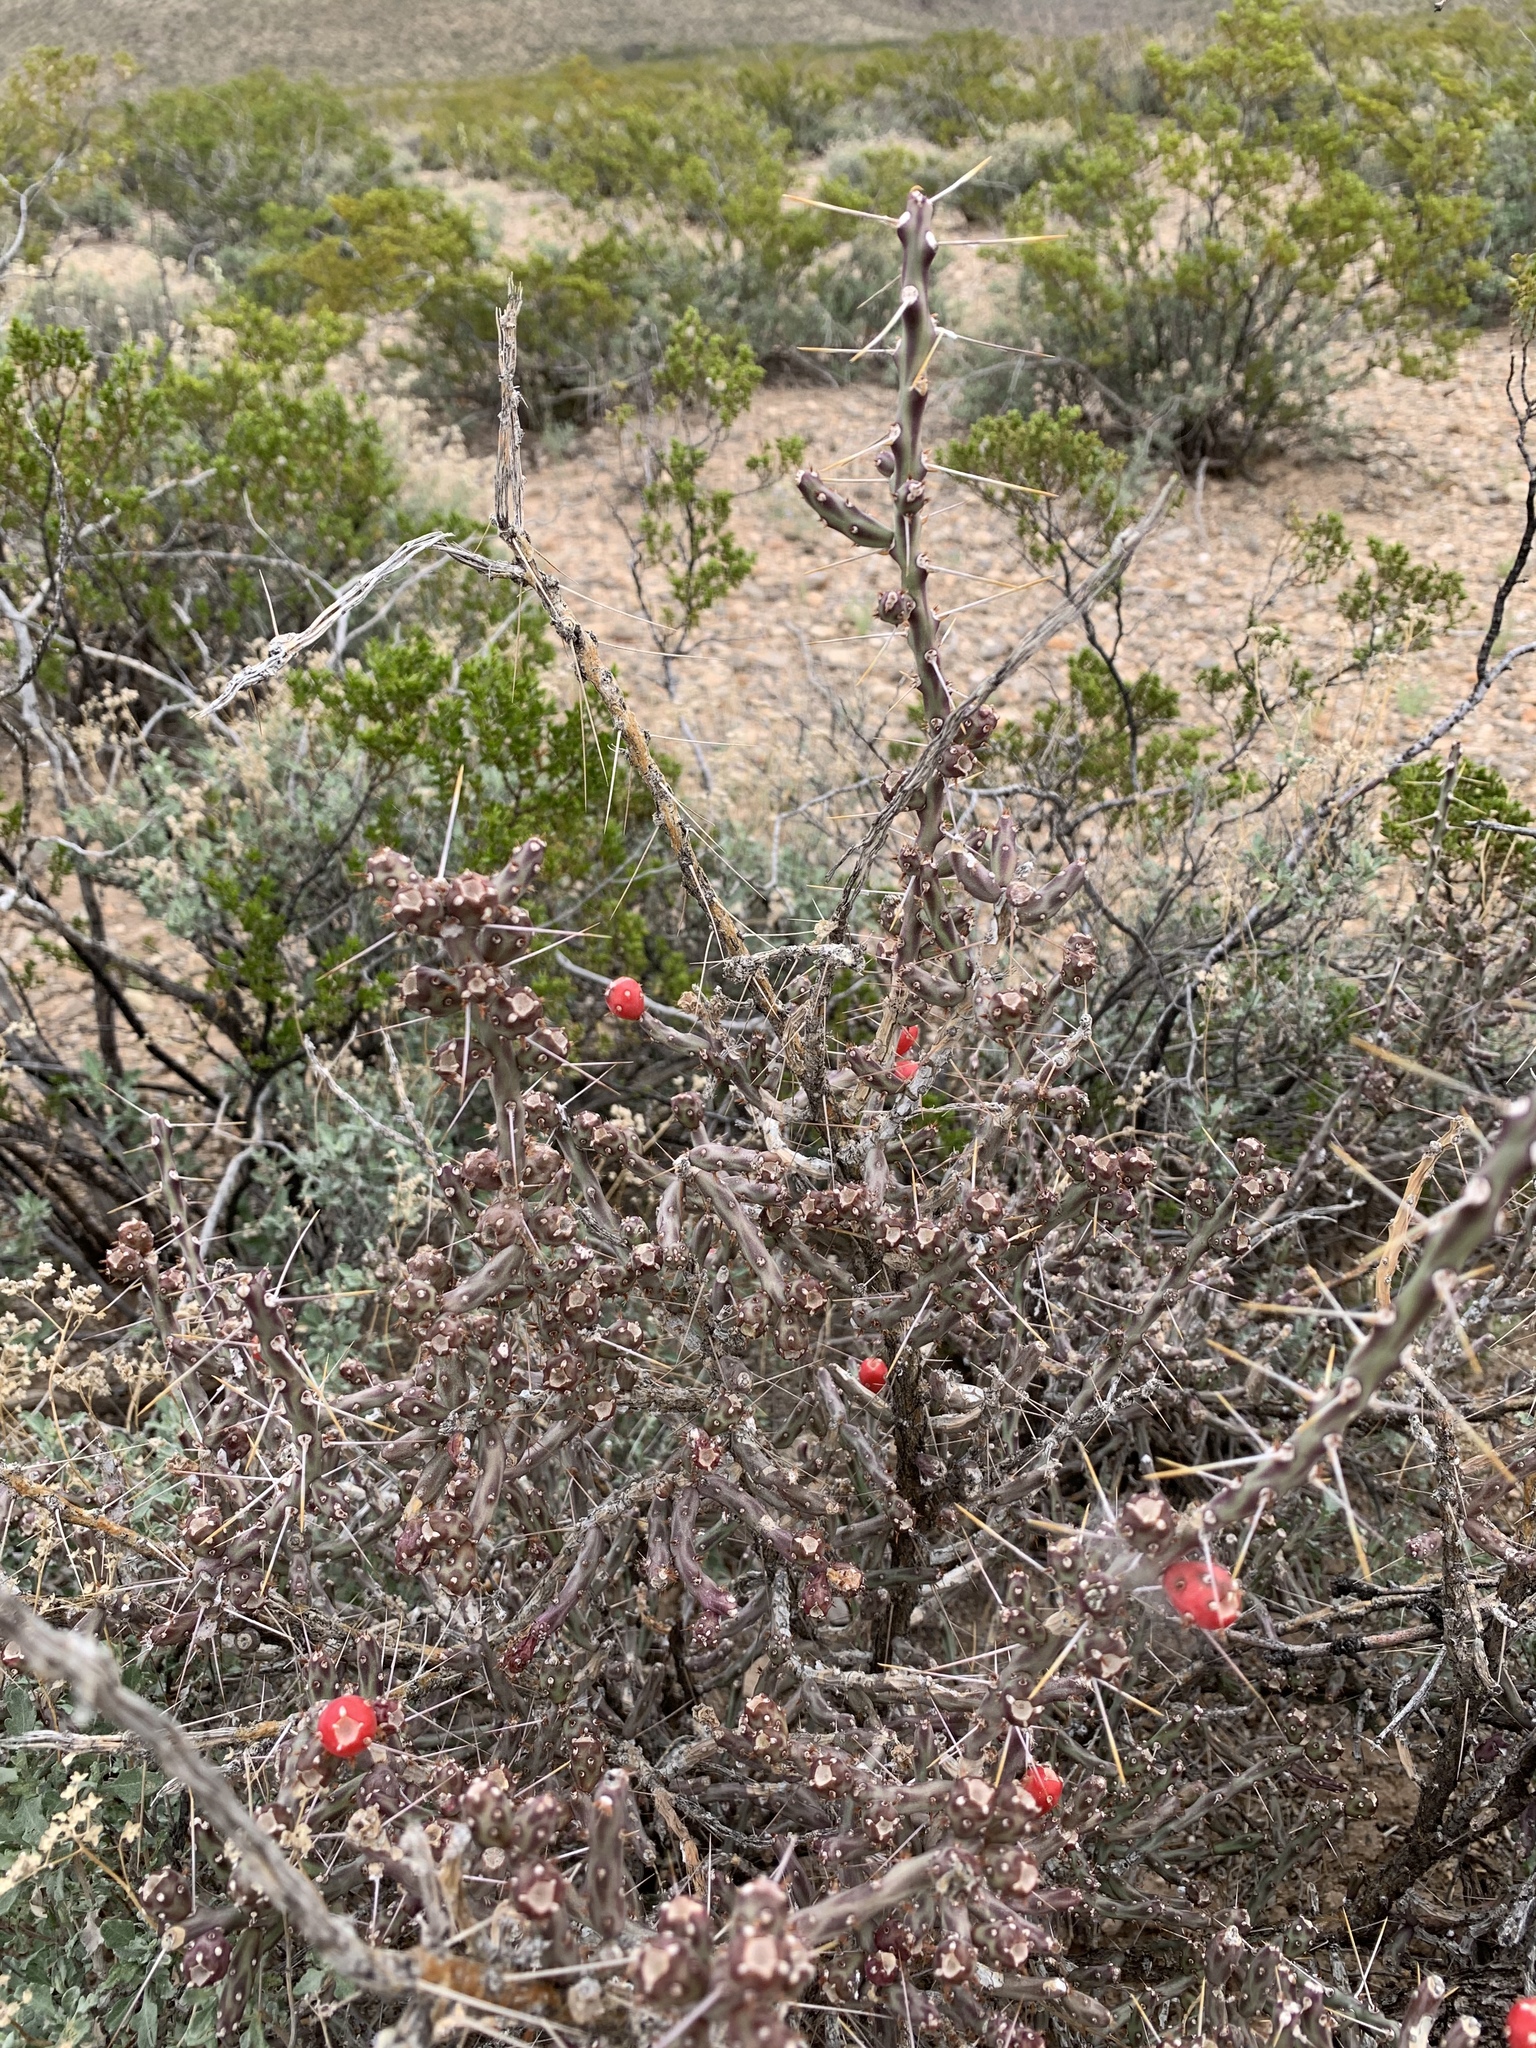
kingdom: Plantae
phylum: Tracheophyta
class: Magnoliopsida
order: Caryophyllales
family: Cactaceae
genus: Cylindropuntia
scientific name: Cylindropuntia leptocaulis
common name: Christmas cactus
